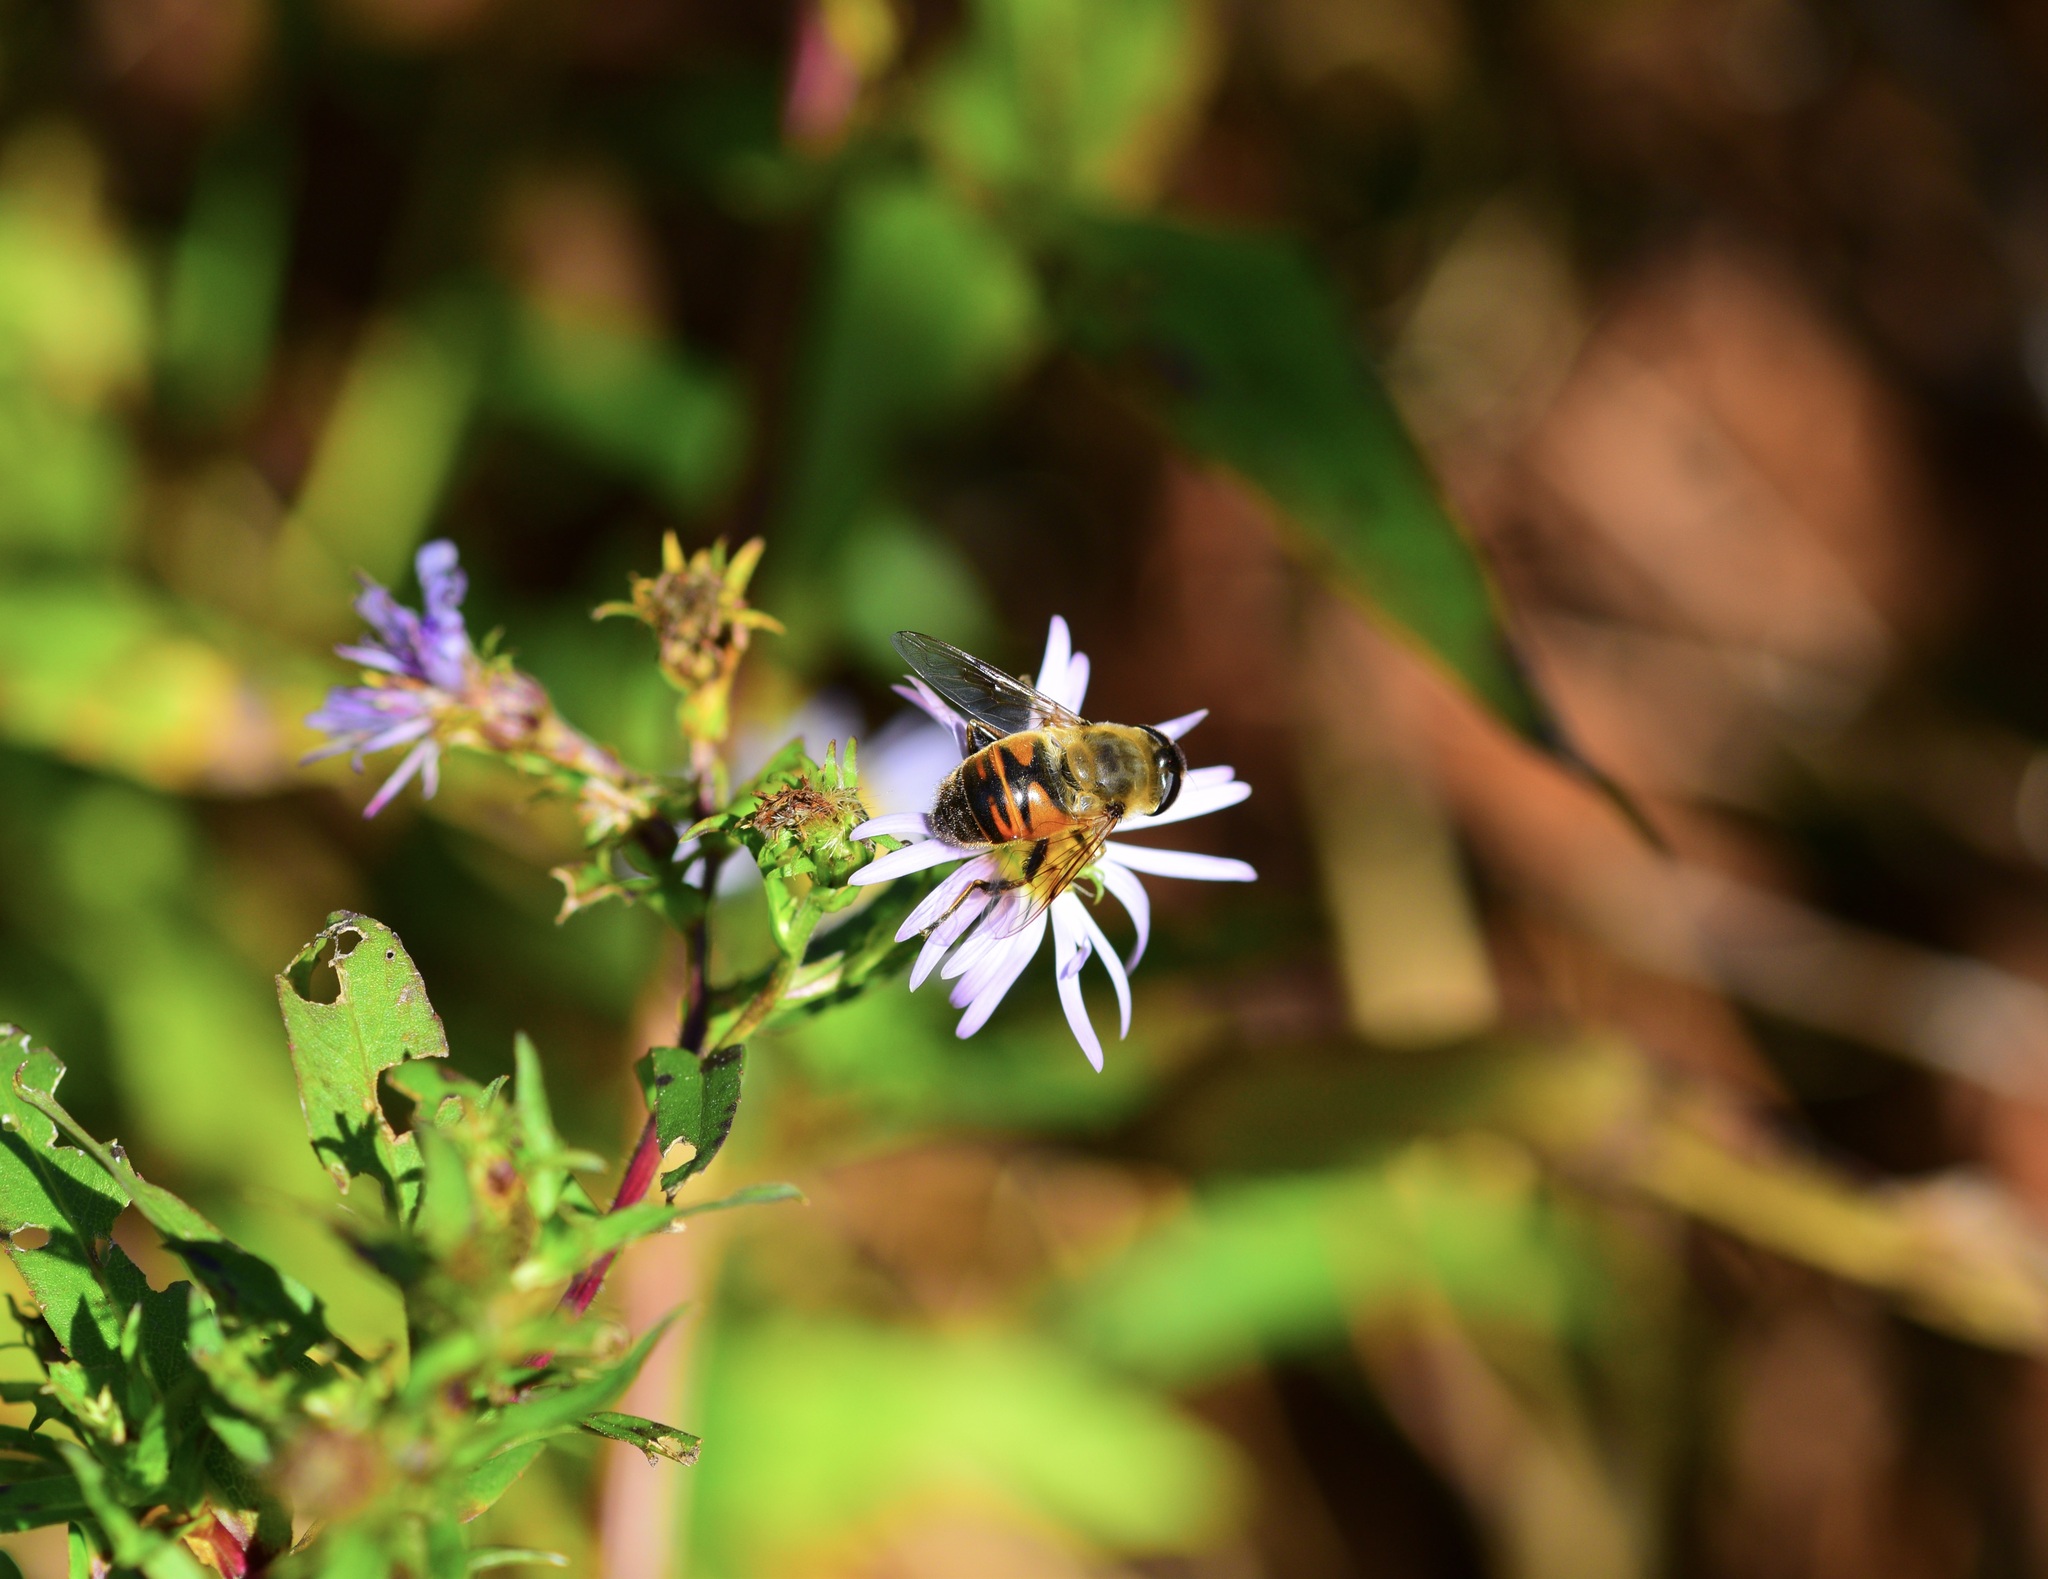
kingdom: Animalia
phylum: Arthropoda
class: Insecta
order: Diptera
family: Syrphidae
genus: Eristalis
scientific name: Eristalis tenax
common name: Drone fly
